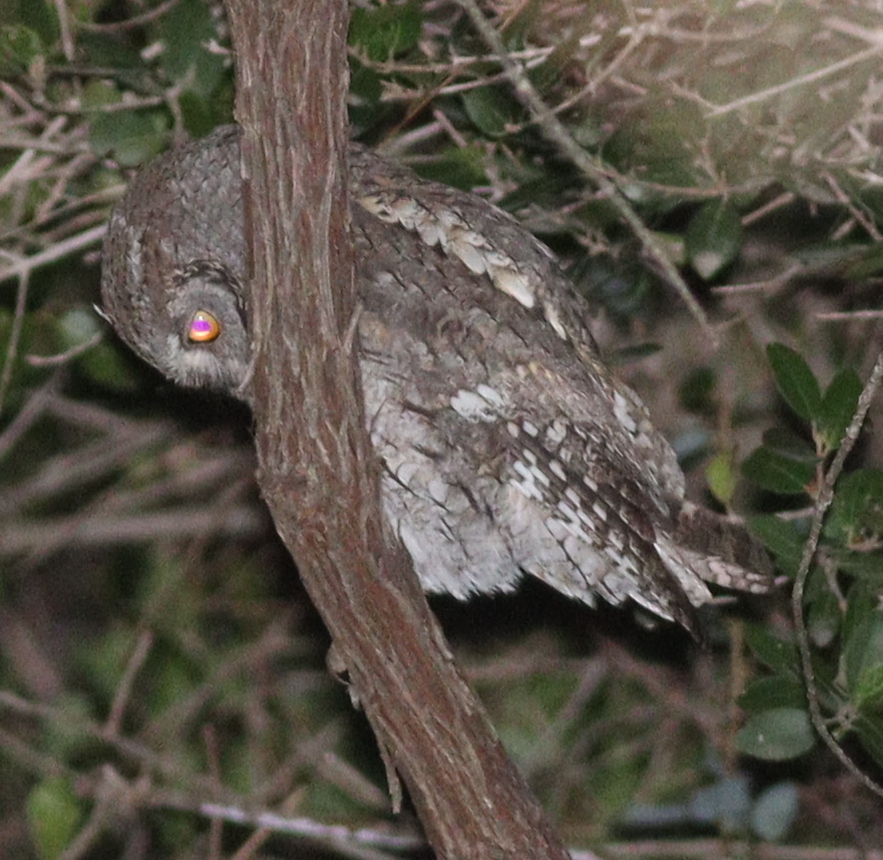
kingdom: Animalia
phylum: Chordata
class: Aves
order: Strigiformes
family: Strigidae
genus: Otus
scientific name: Otus scops
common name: Eurasian scops owl
